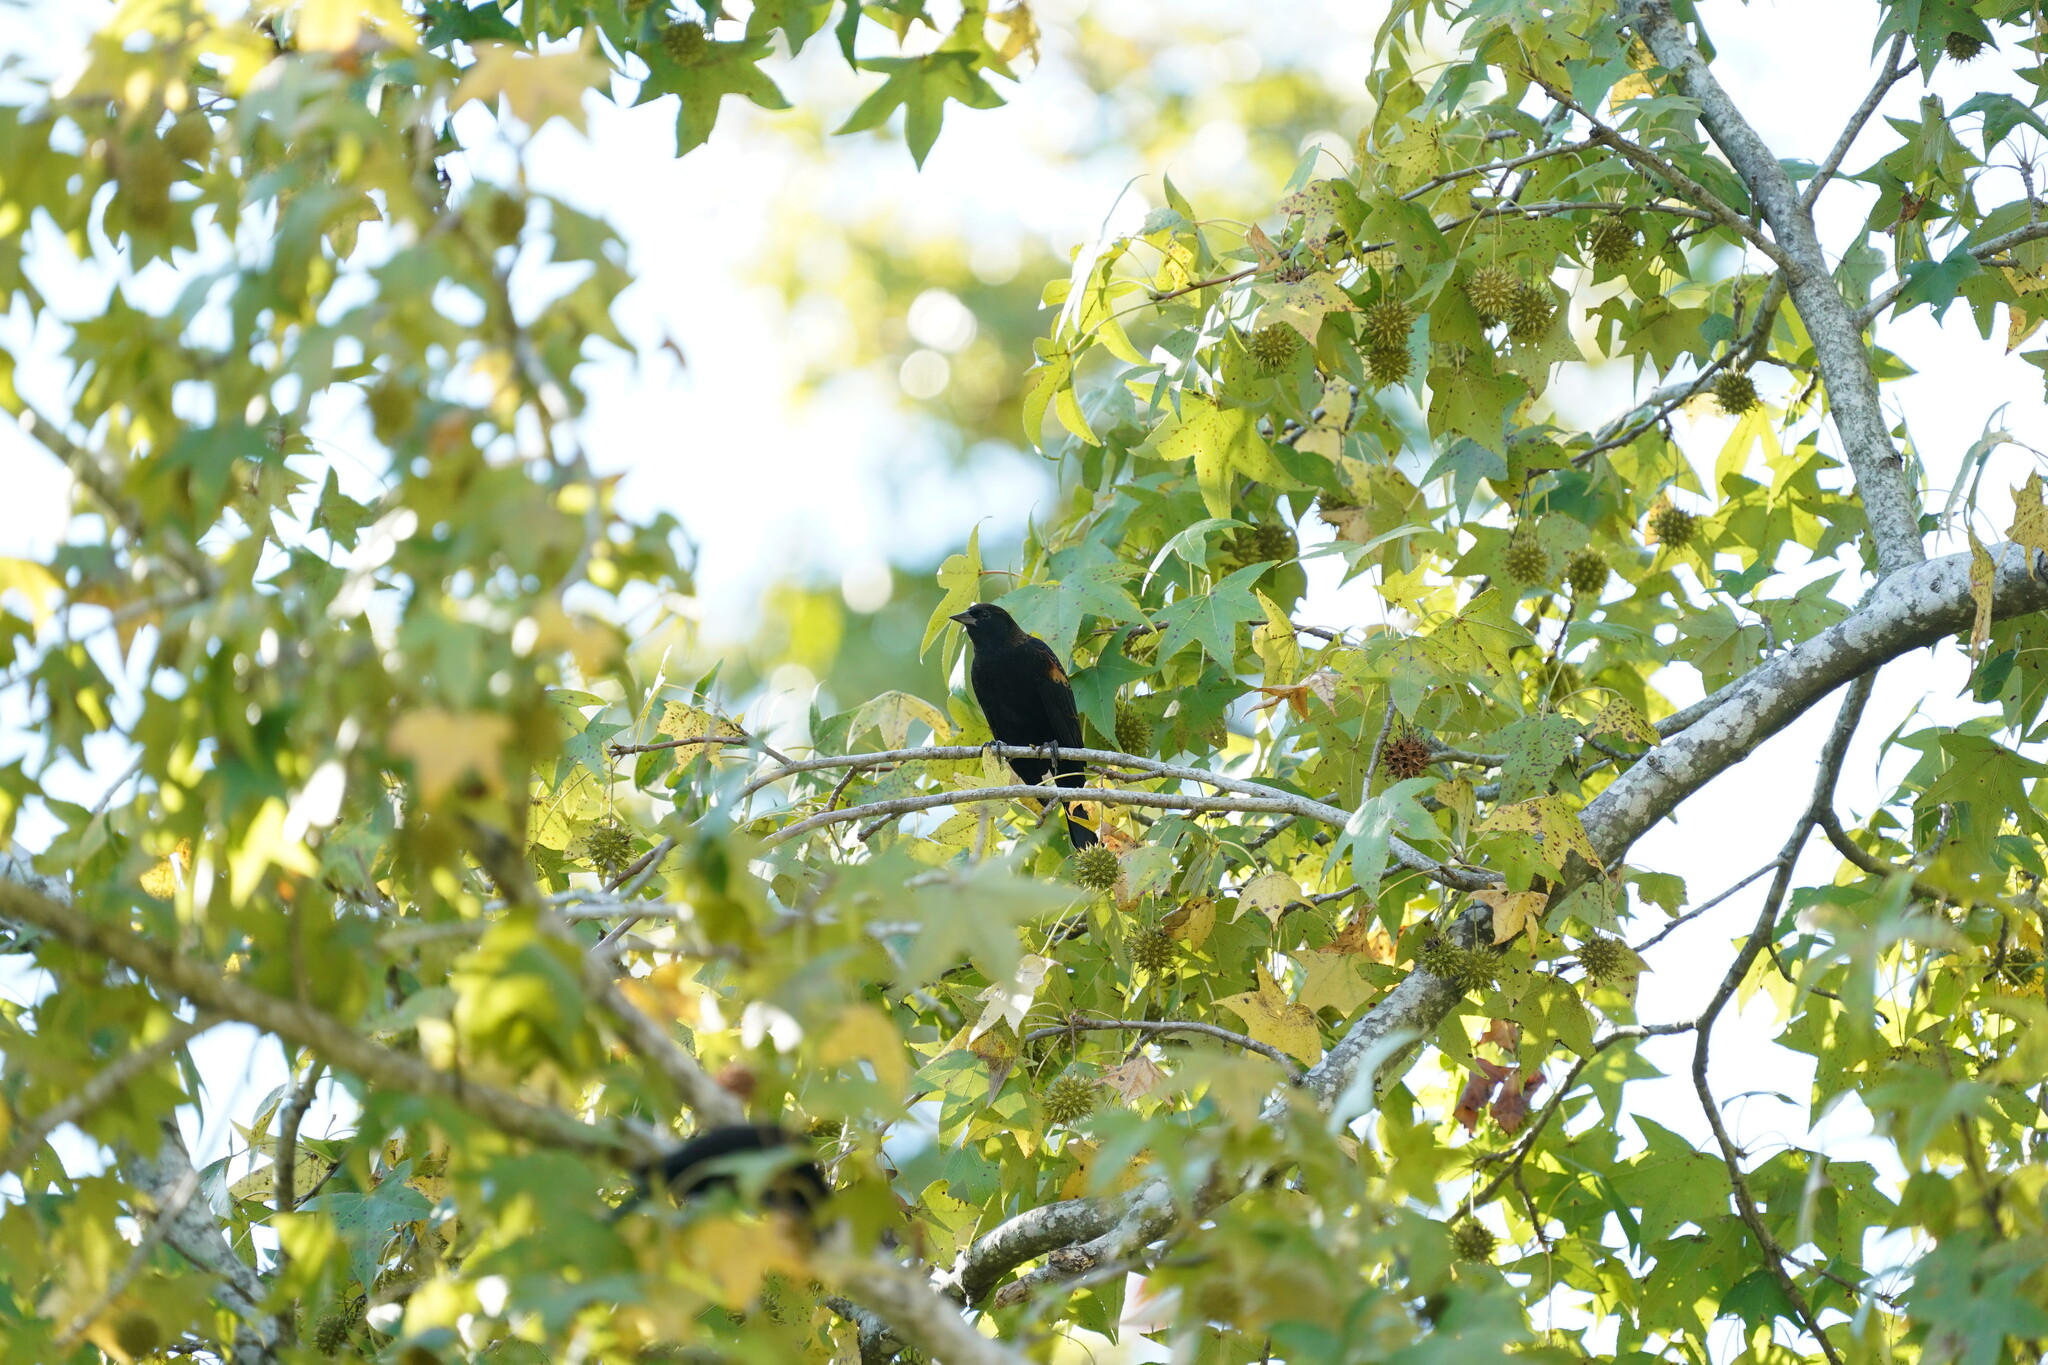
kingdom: Animalia
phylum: Chordata
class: Aves
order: Passeriformes
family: Icteridae
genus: Agelaius
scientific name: Agelaius phoeniceus
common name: Red-winged blackbird
